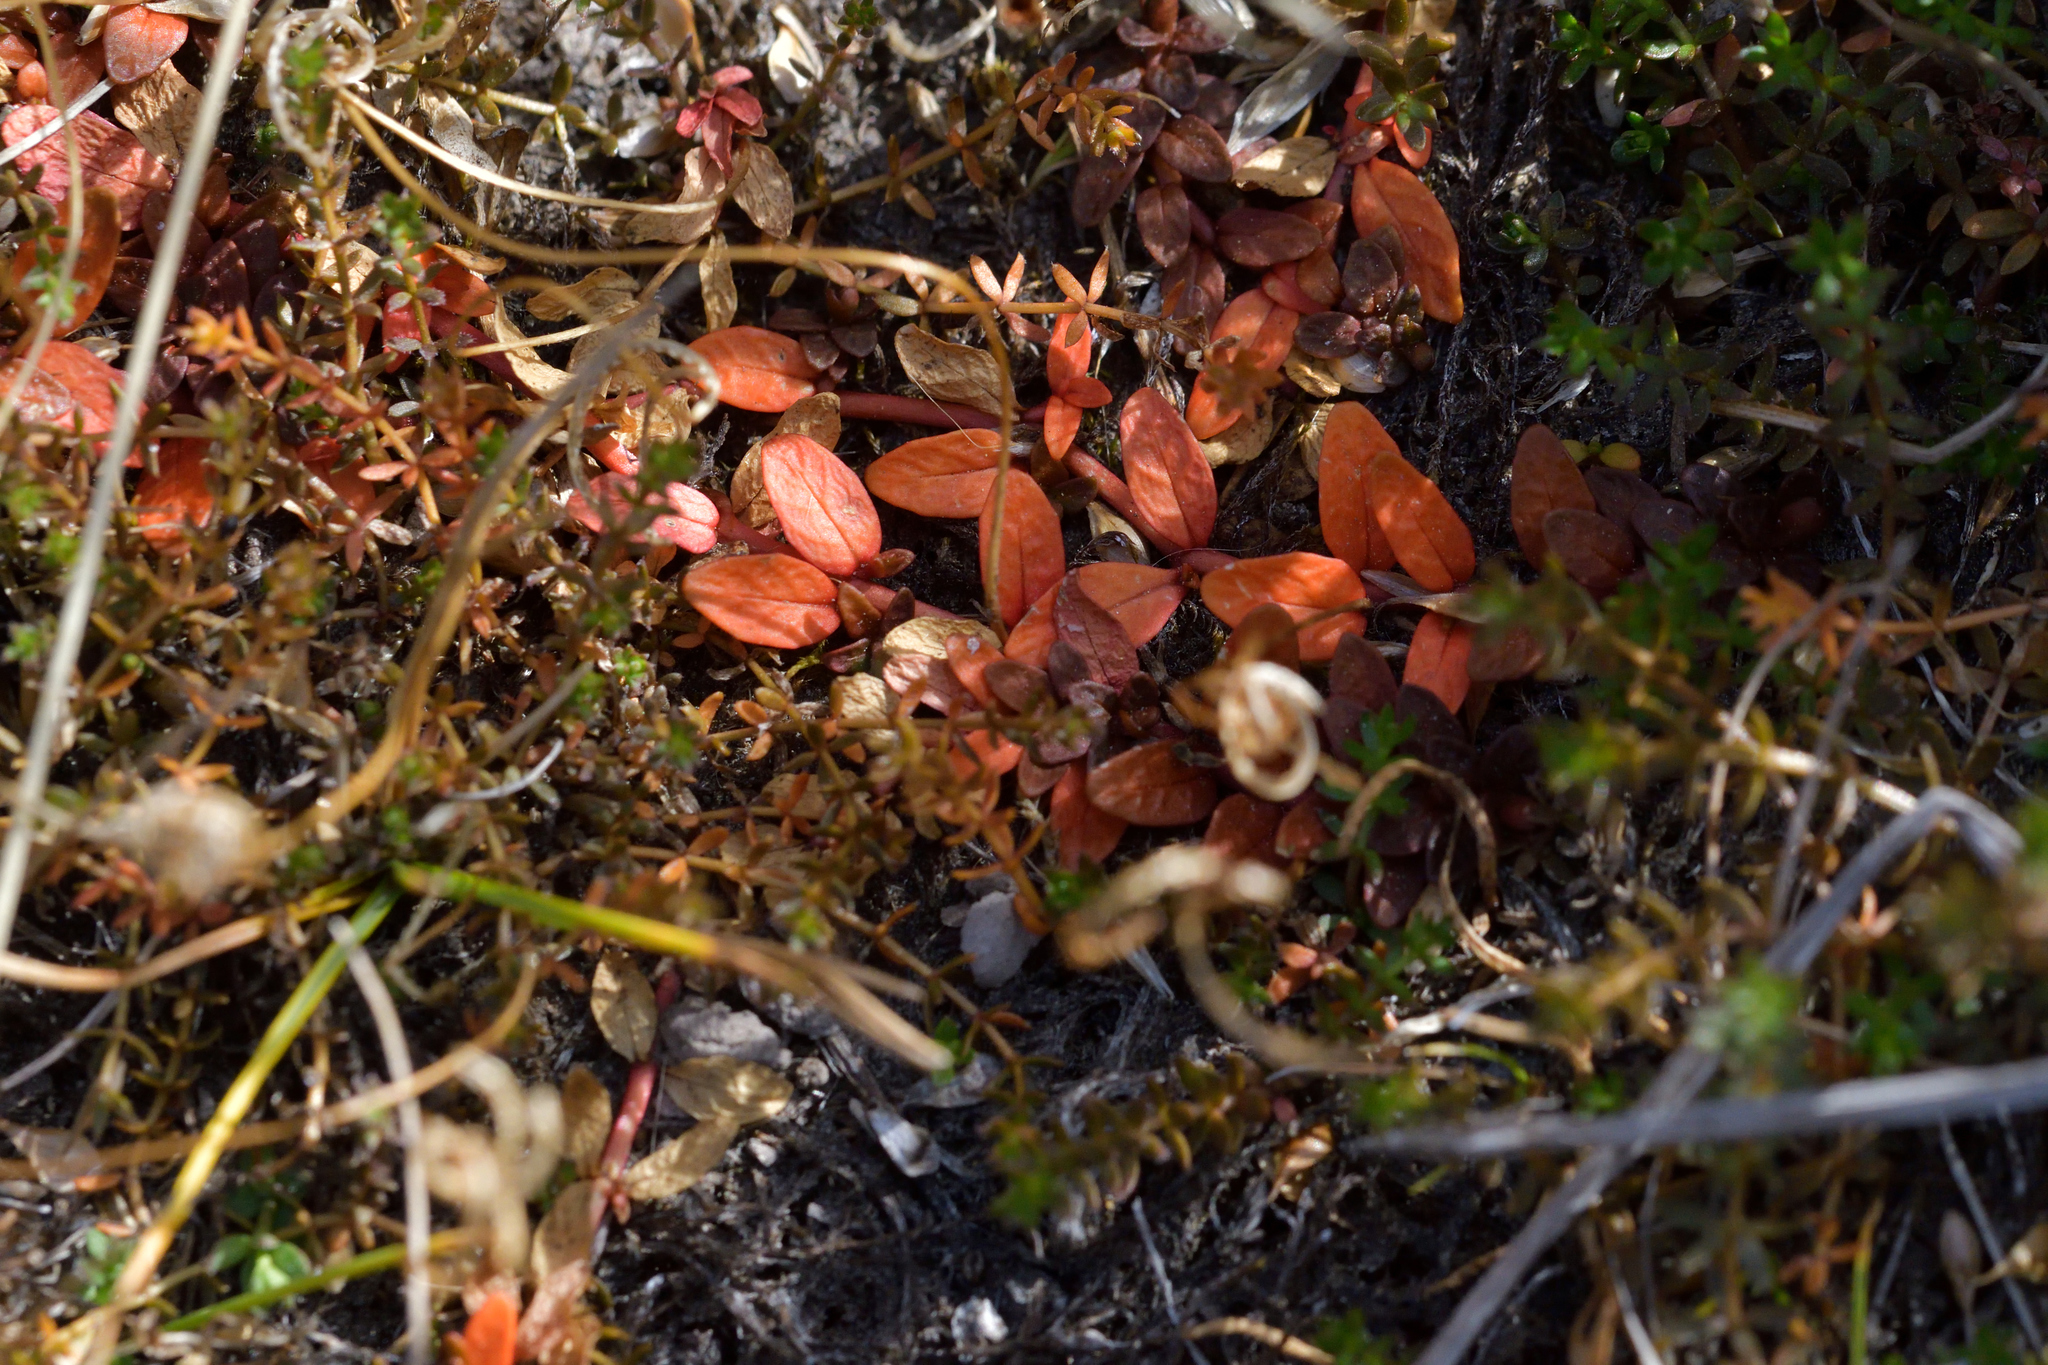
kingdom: Plantae
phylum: Tracheophyta
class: Magnoliopsida
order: Myrtales
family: Onagraceae
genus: Epilobium
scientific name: Epilobium angustum
